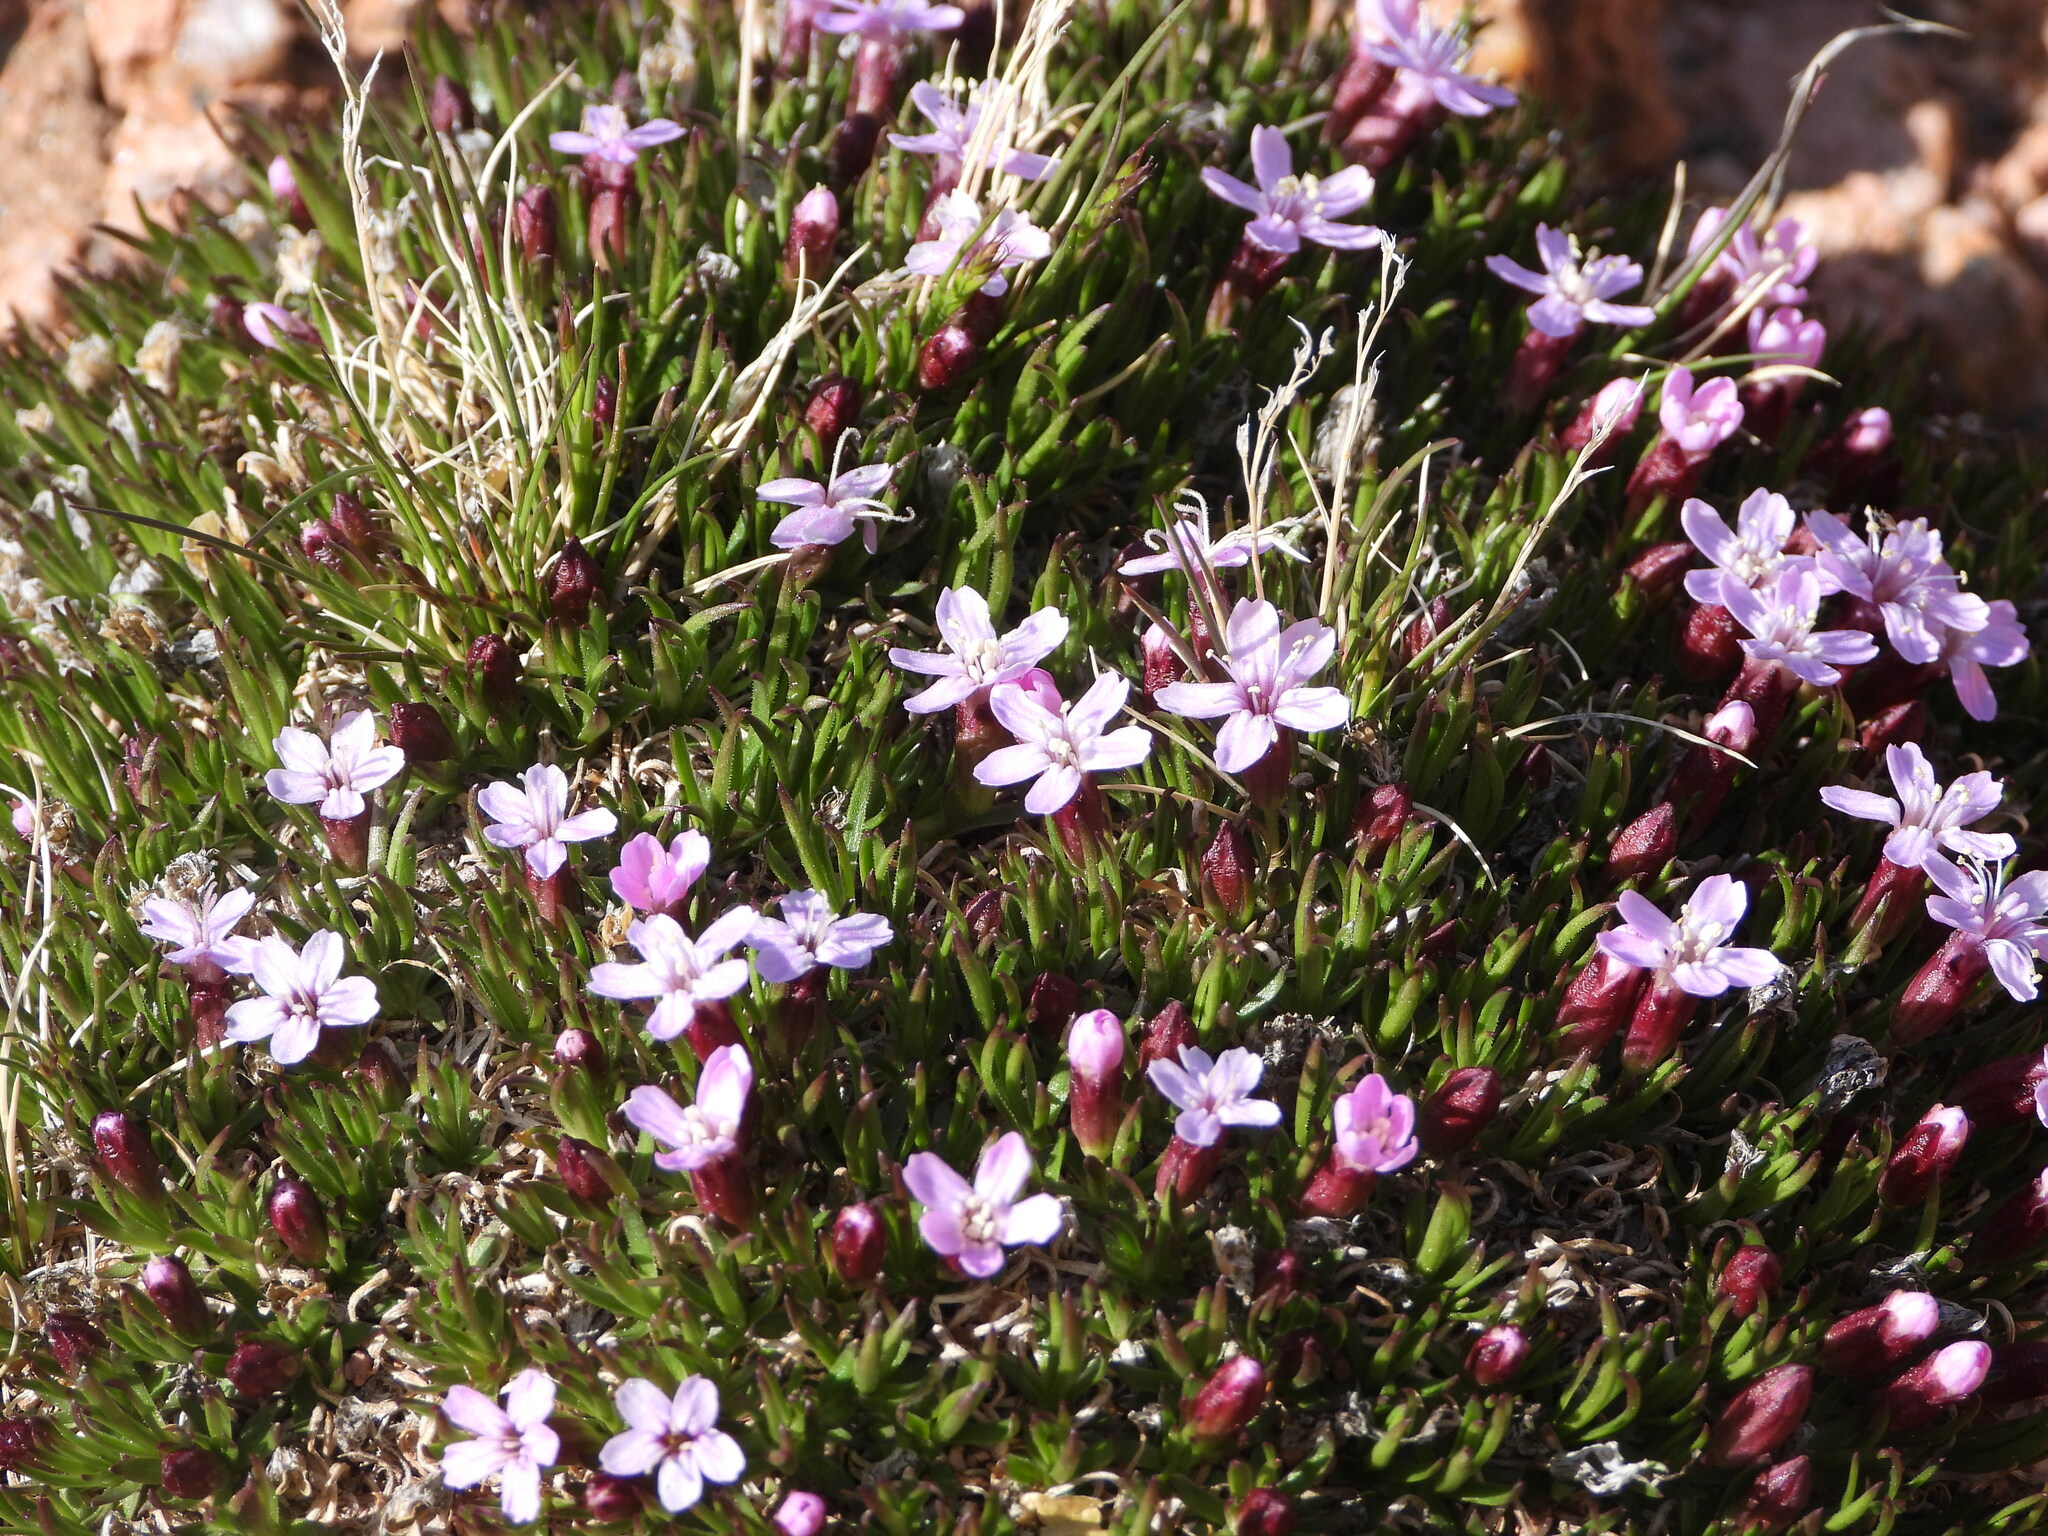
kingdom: Plantae
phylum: Tracheophyta
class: Magnoliopsida
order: Caryophyllales
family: Caryophyllaceae
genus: Silene
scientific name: Silene acaulis
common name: Moss campion
